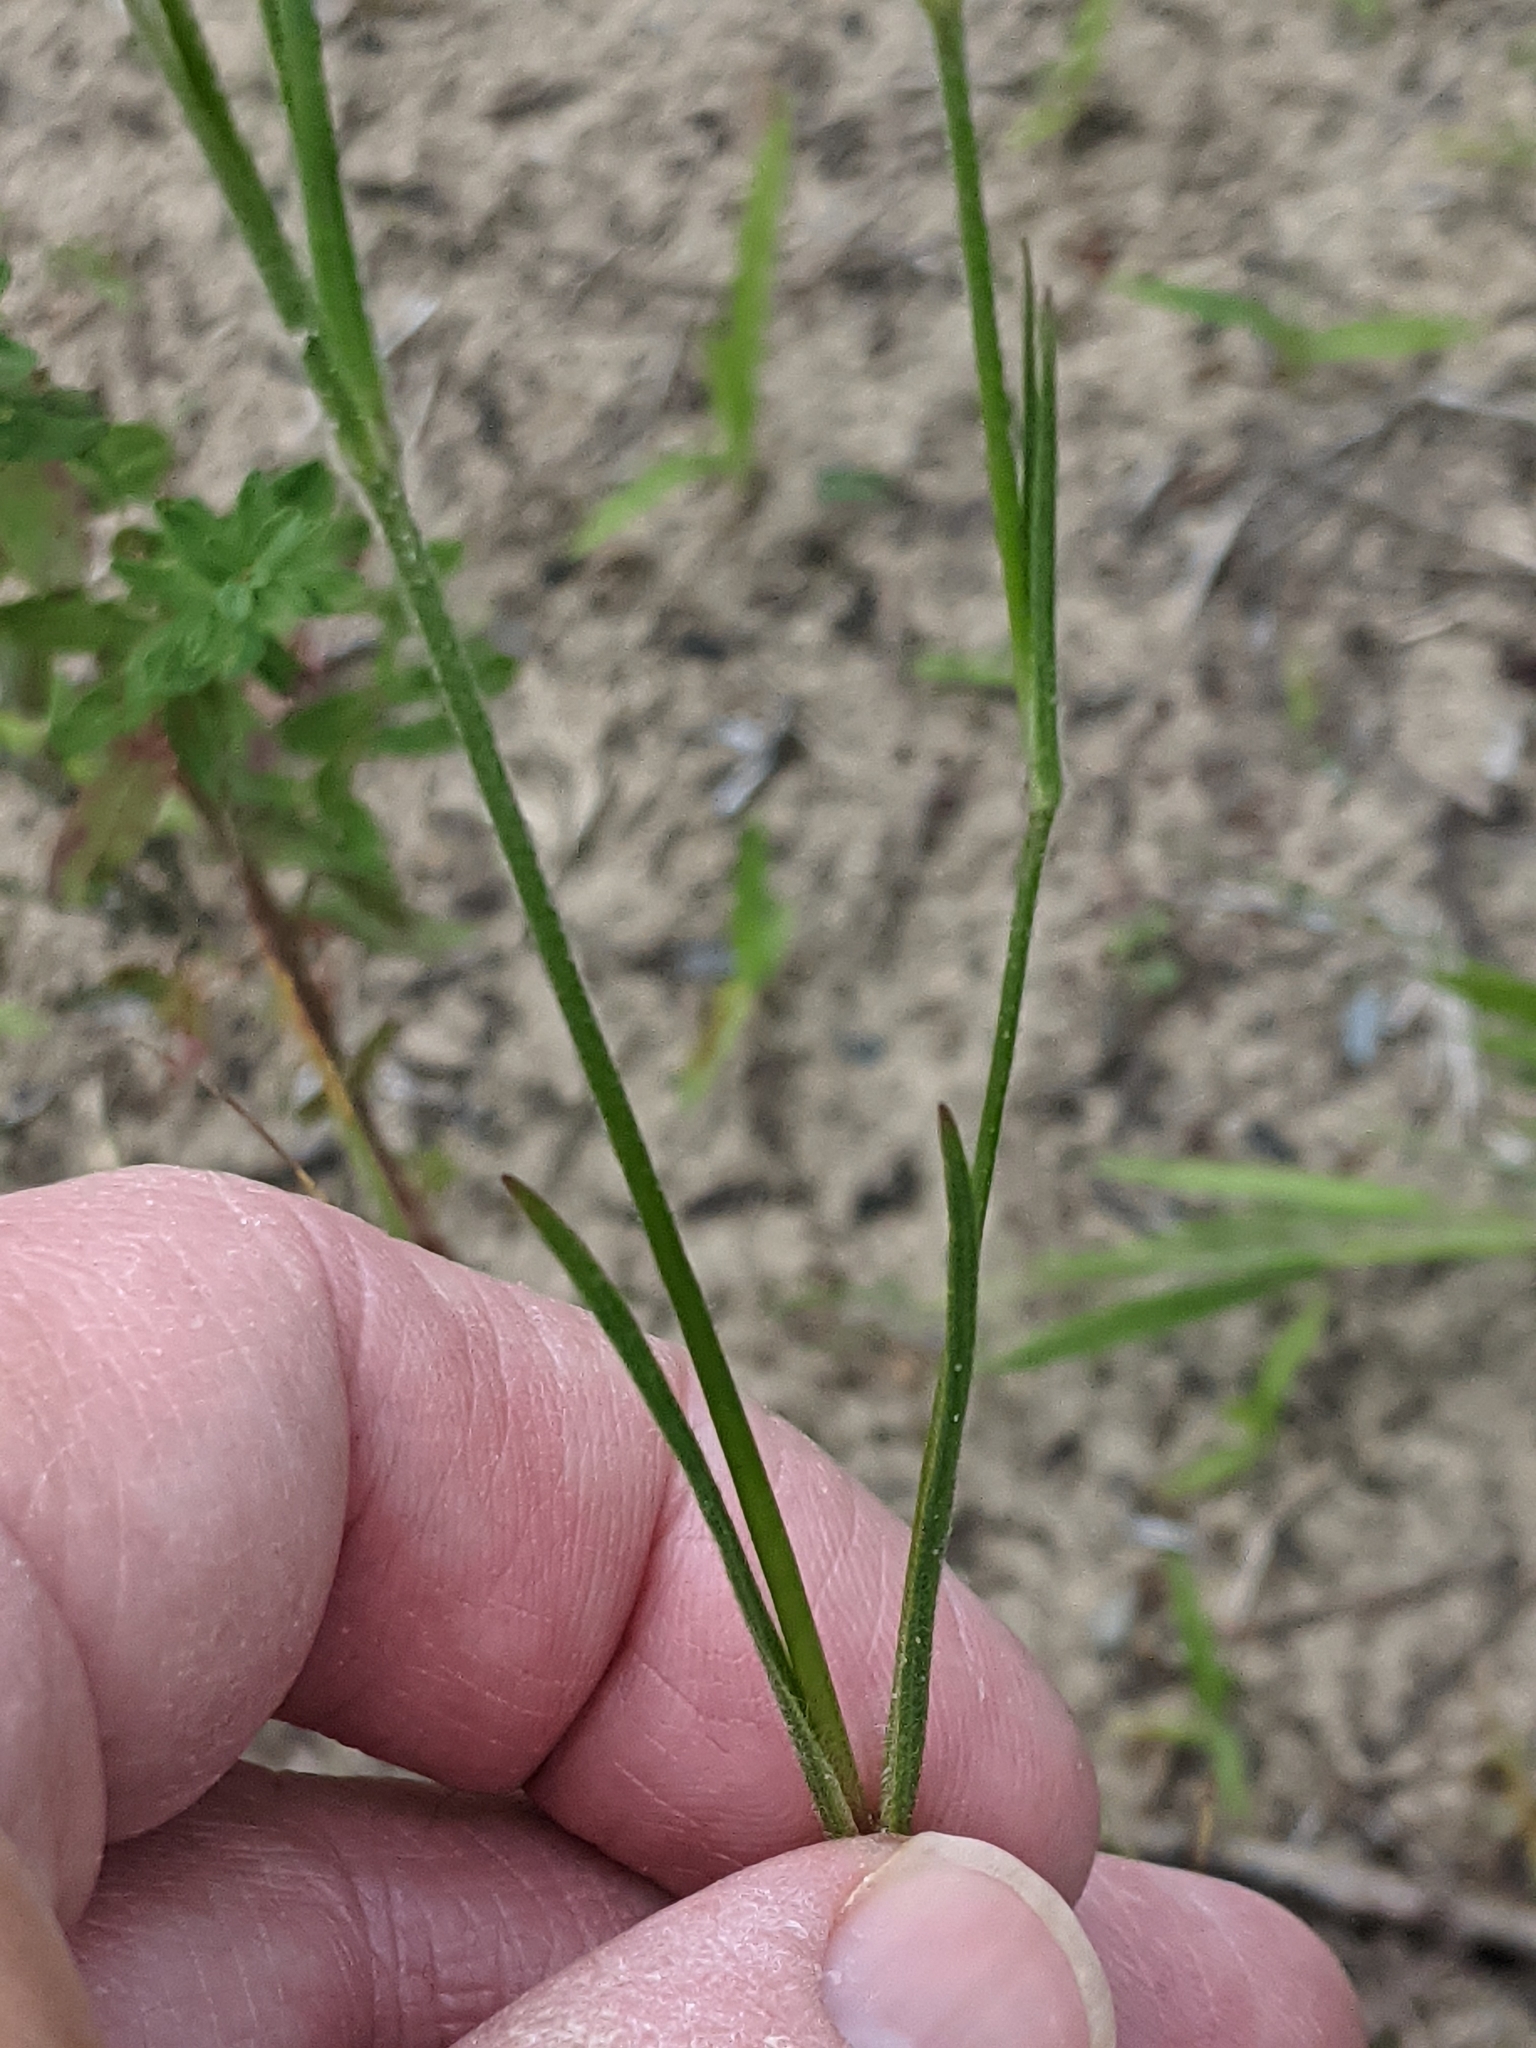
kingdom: Plantae
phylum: Tracheophyta
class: Magnoliopsida
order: Caryophyllales
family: Caryophyllaceae
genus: Dianthus
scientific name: Dianthus armeria
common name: Deptford pink
